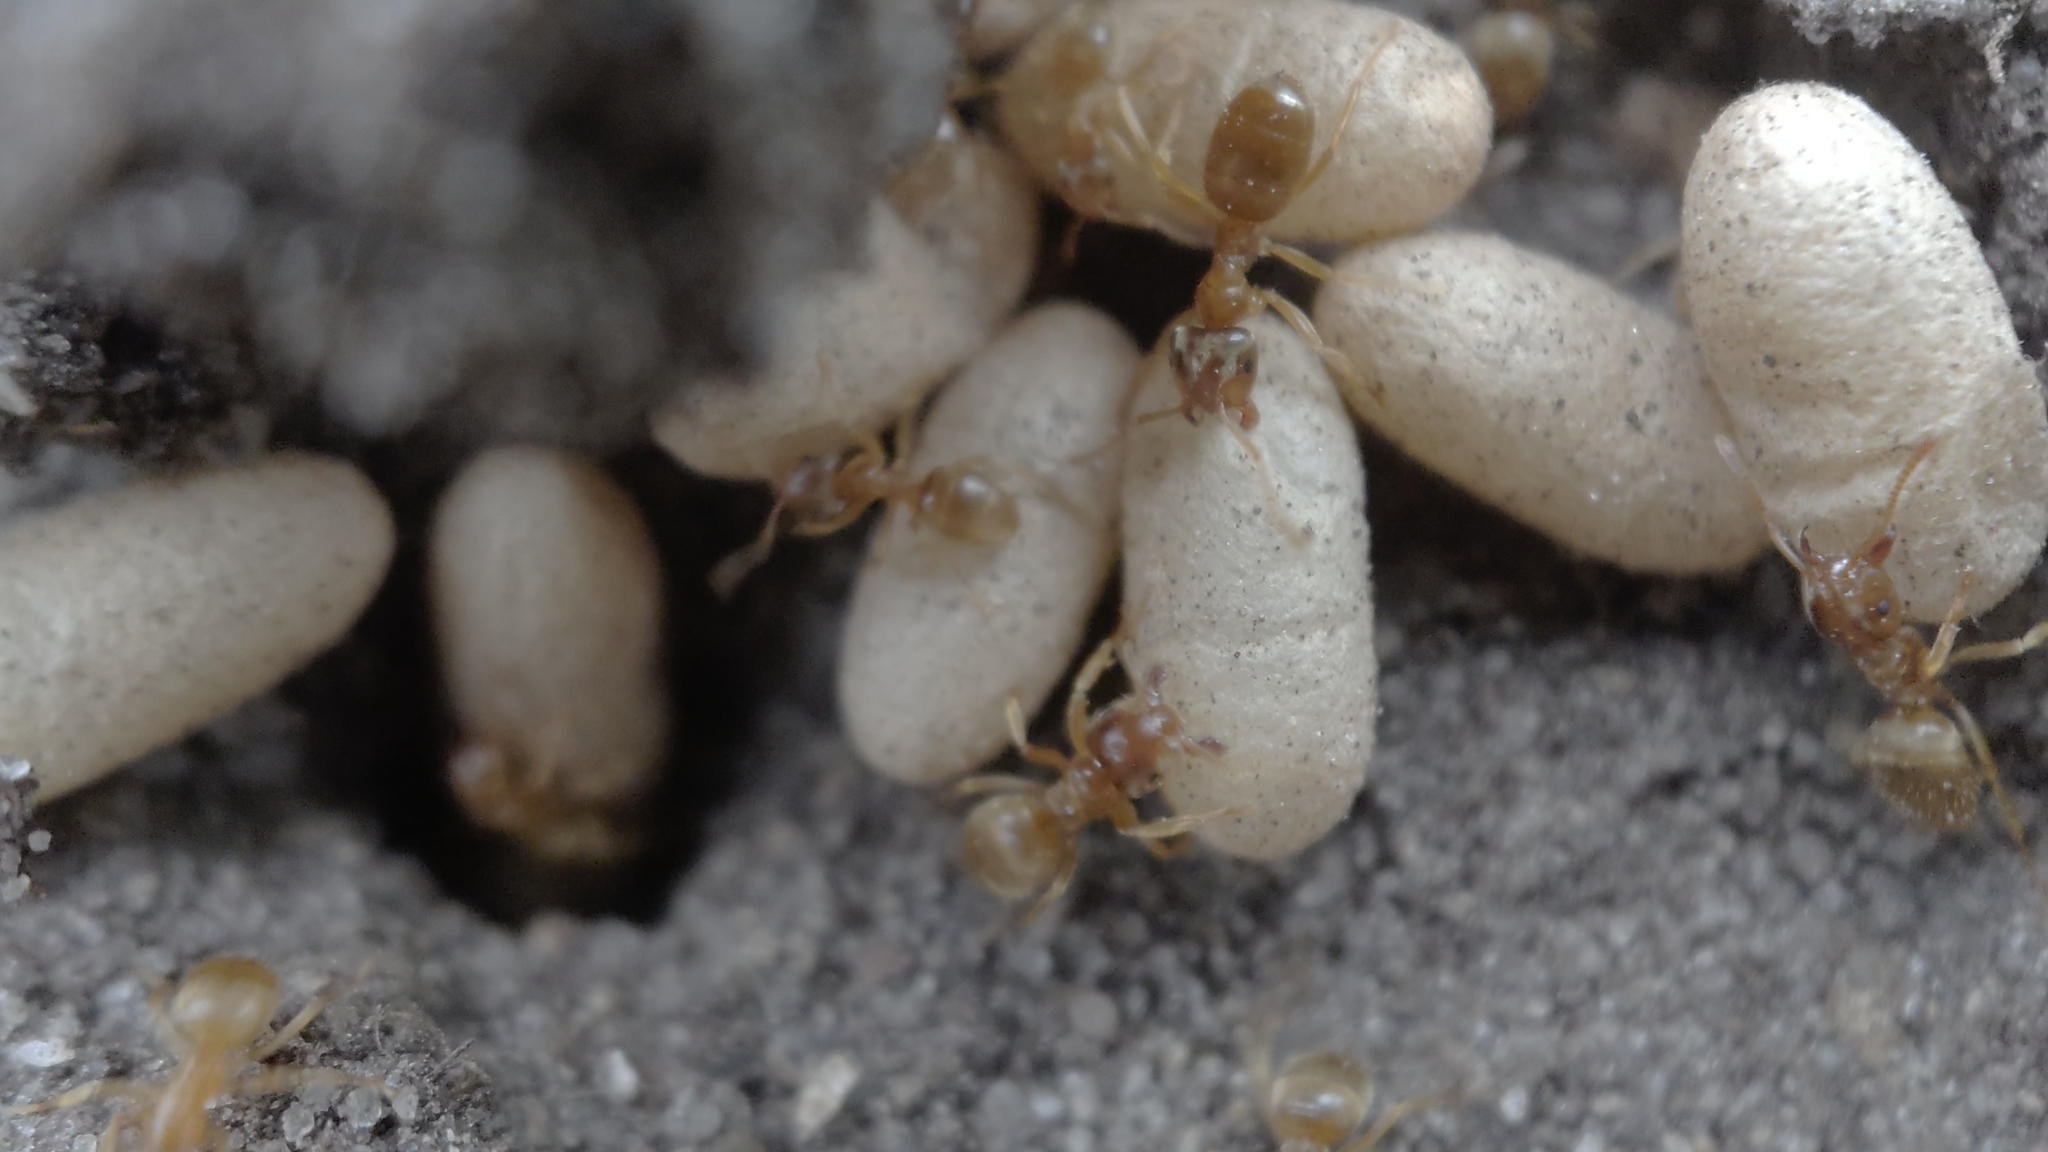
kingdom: Animalia
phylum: Arthropoda
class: Insecta
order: Hymenoptera
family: Formicidae
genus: Lasius
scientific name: Lasius flavus
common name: Blond field ant
